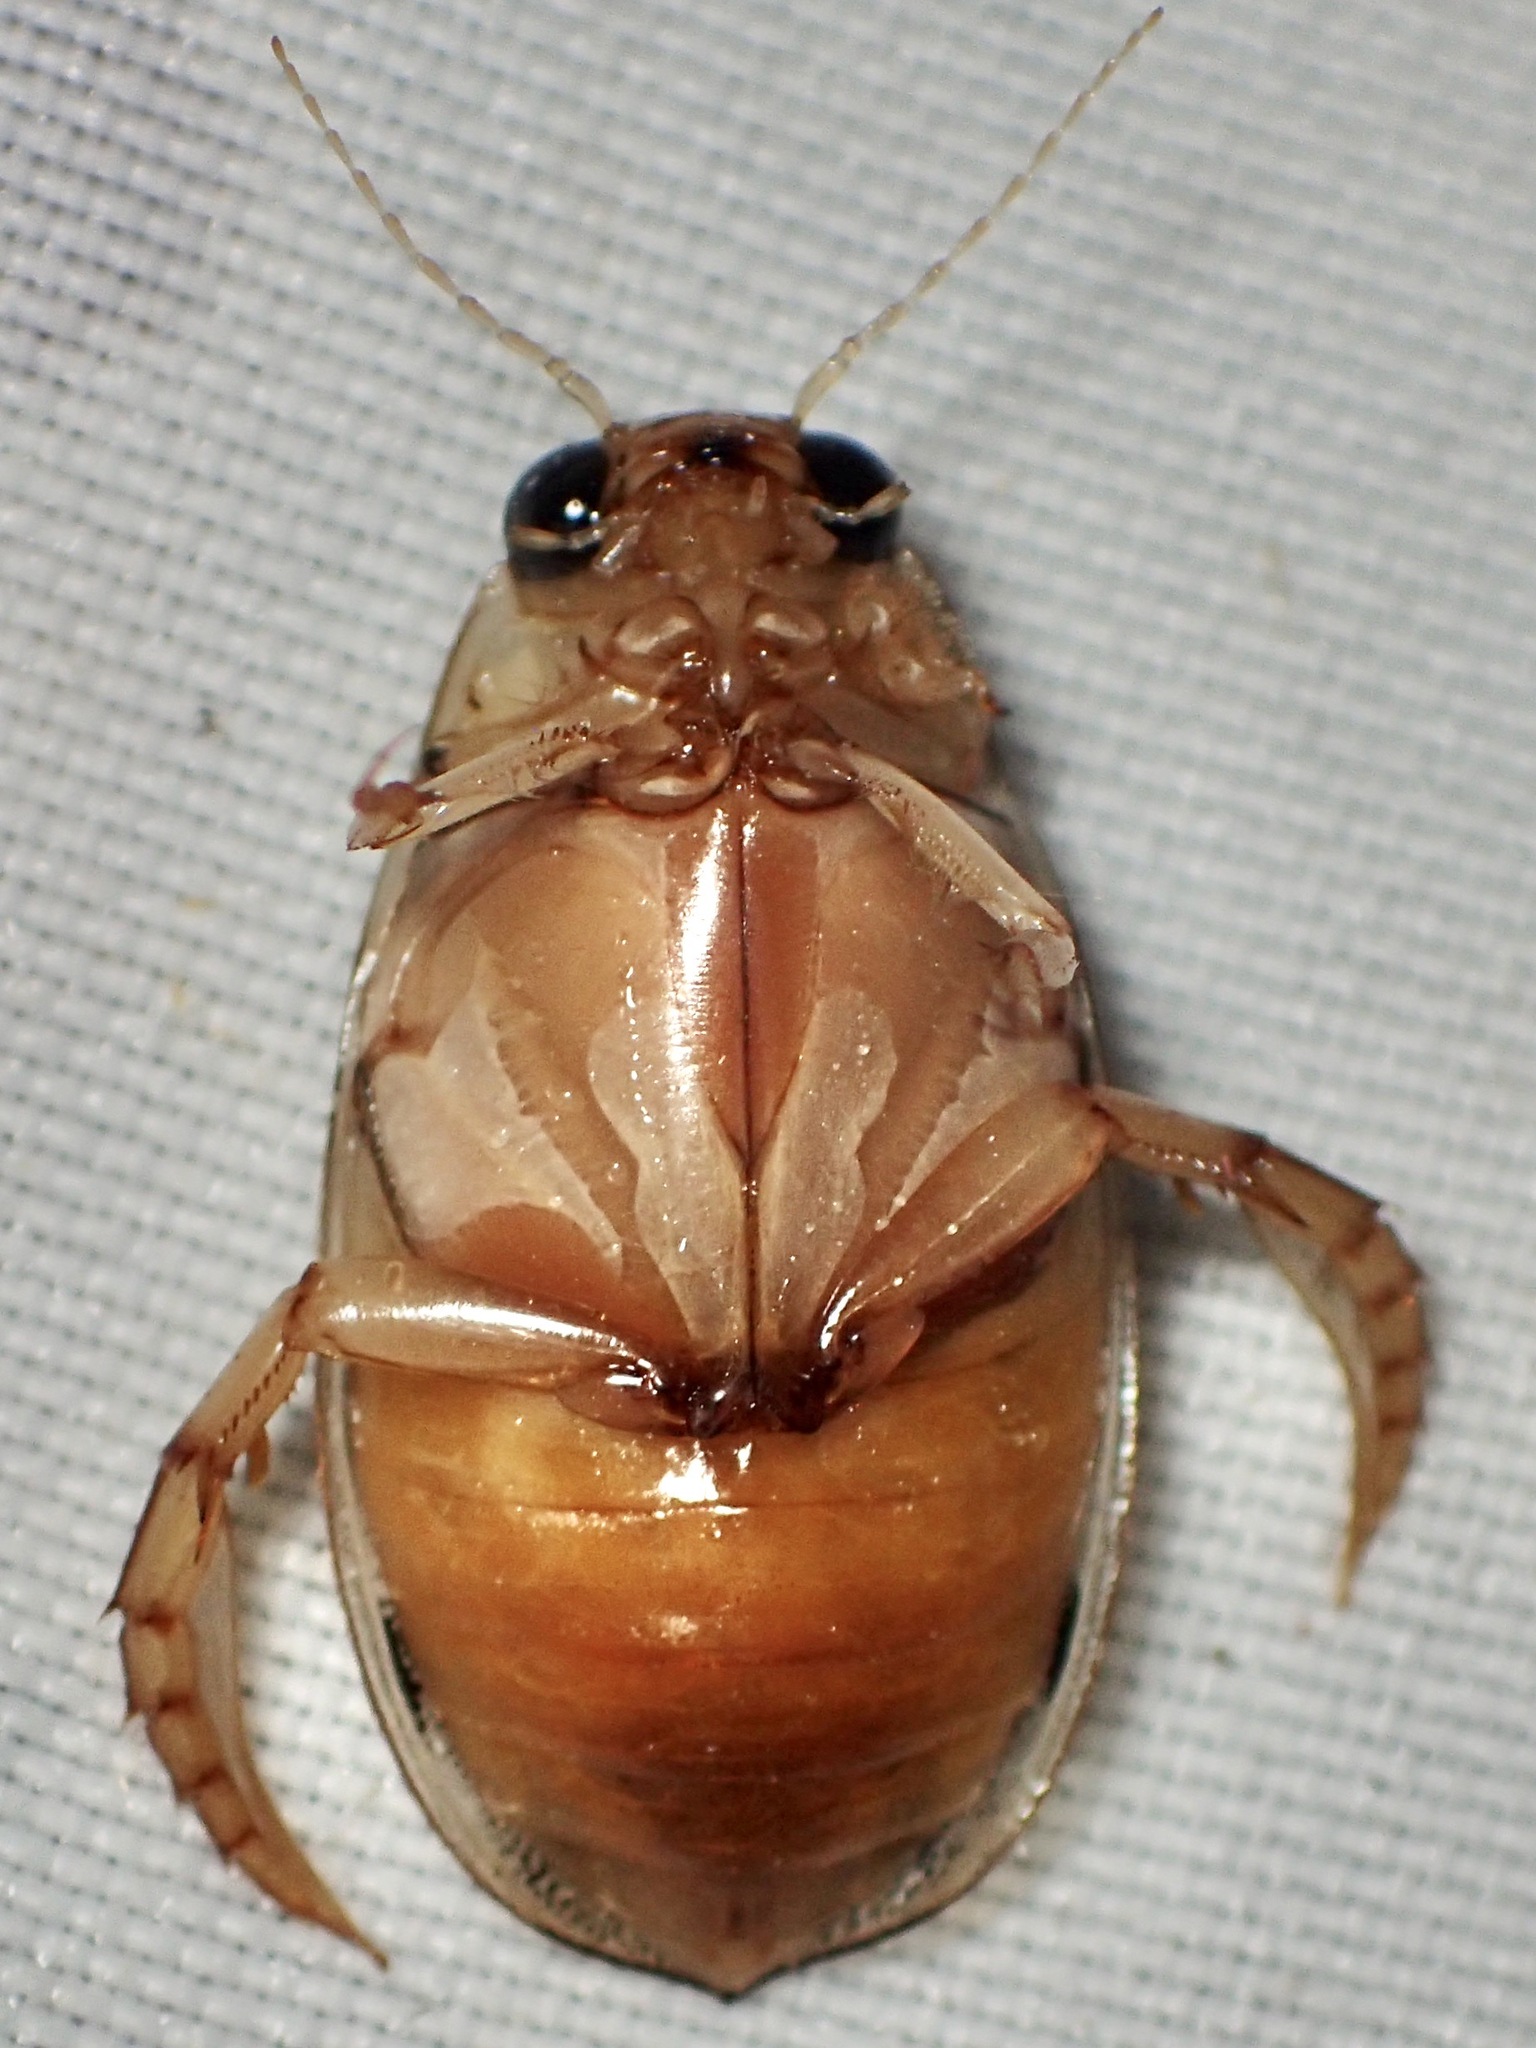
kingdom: Animalia
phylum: Arthropoda
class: Insecta
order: Coleoptera
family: Dytiscidae
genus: Eretes
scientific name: Eretes
